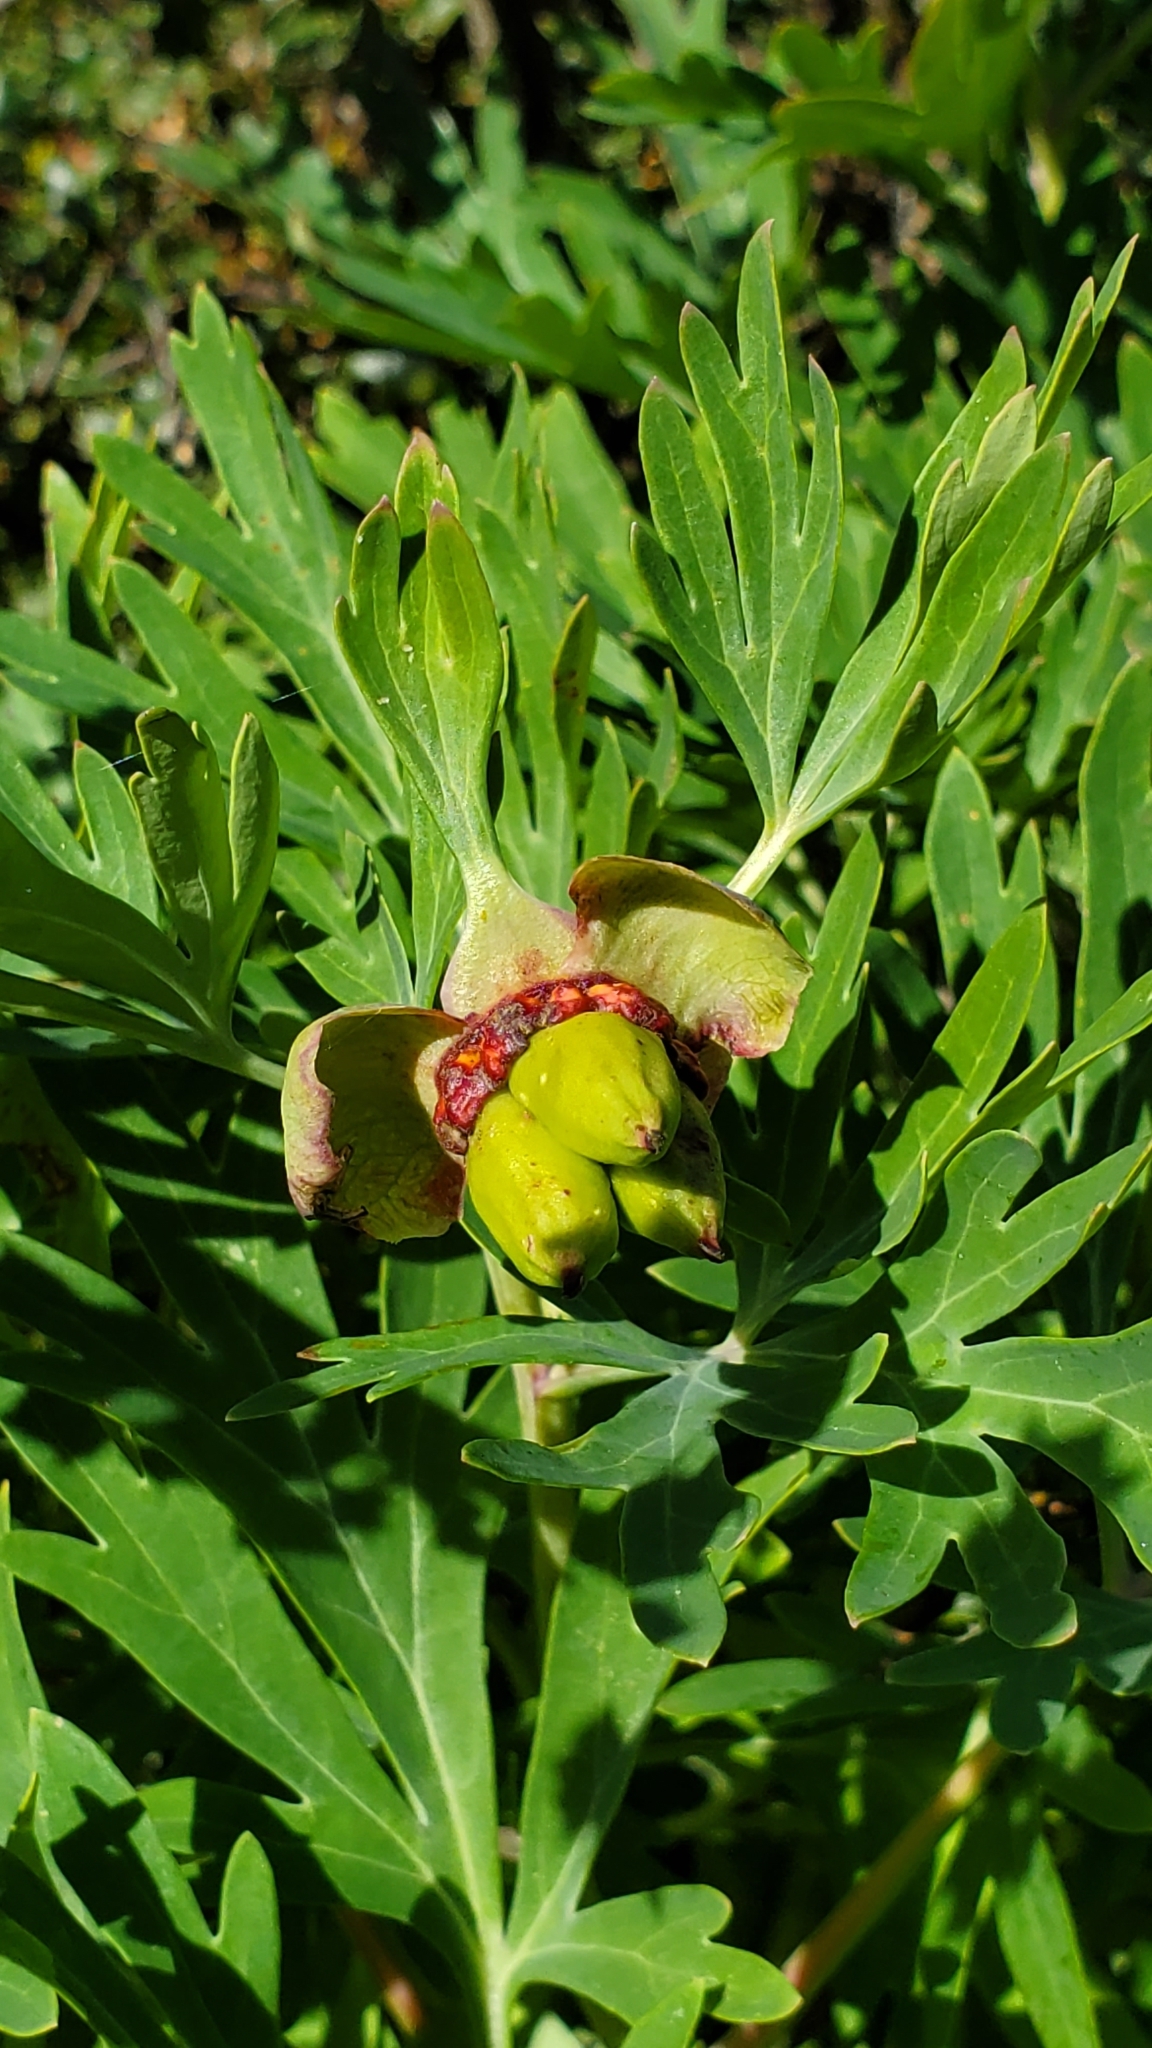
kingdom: Plantae
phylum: Tracheophyta
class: Magnoliopsida
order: Saxifragales
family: Paeoniaceae
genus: Paeonia
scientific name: Paeonia californica
